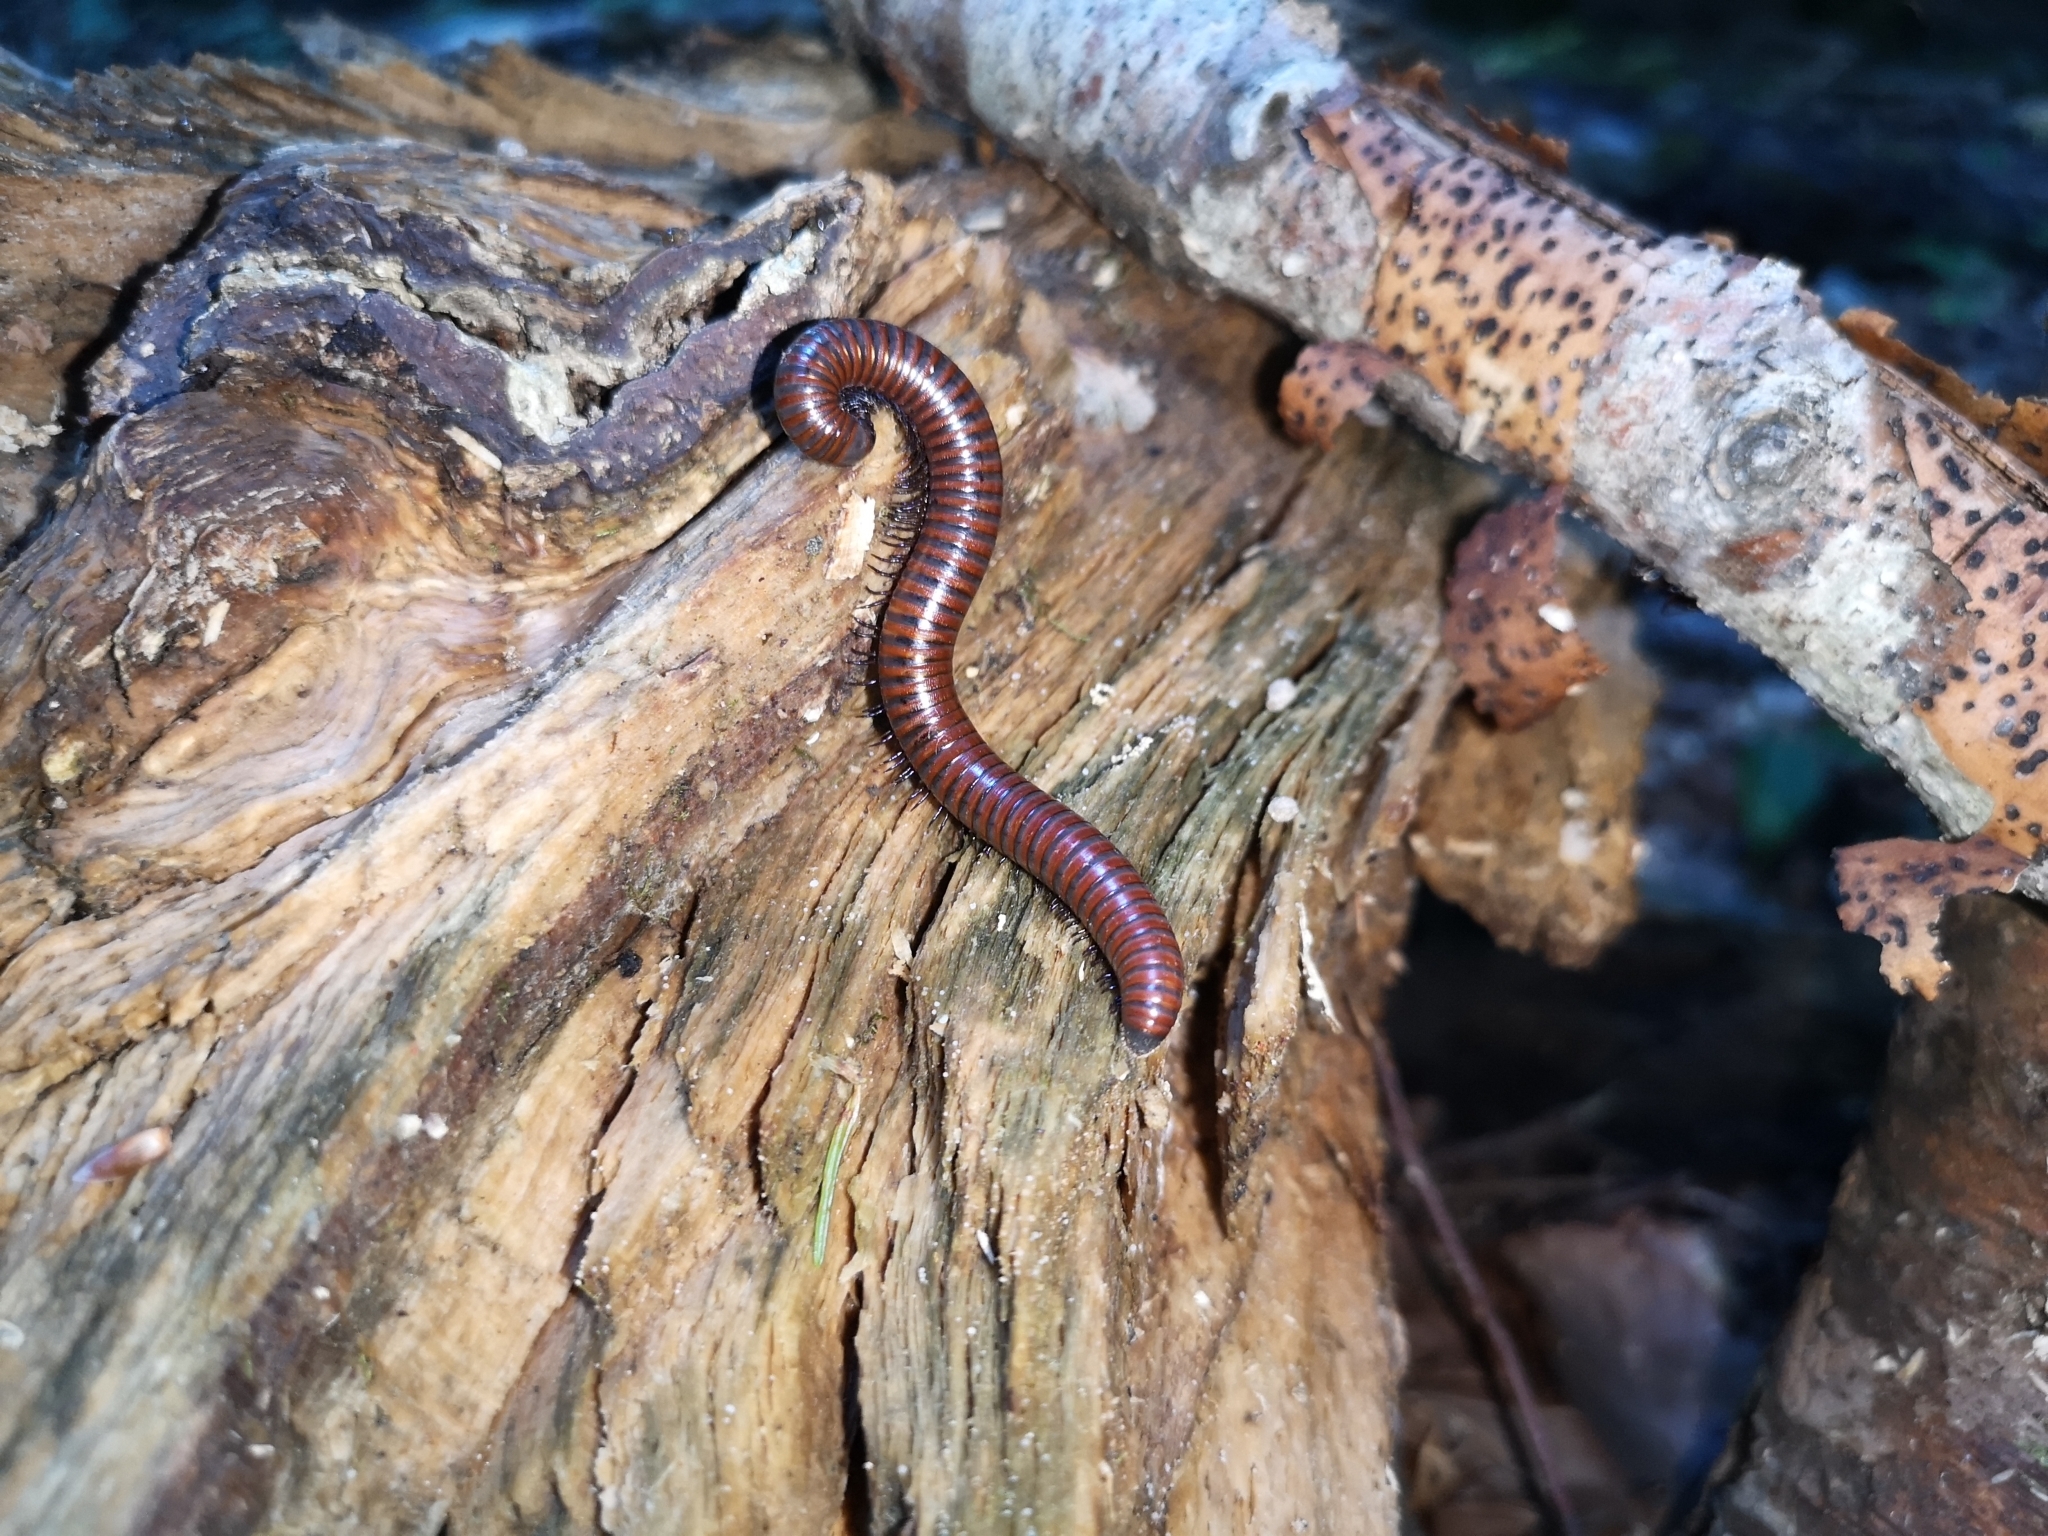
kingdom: Animalia
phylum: Arthropoda
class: Diplopoda
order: Julida
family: Julidae
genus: Pachyiulus
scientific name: Pachyiulus hungaricus
